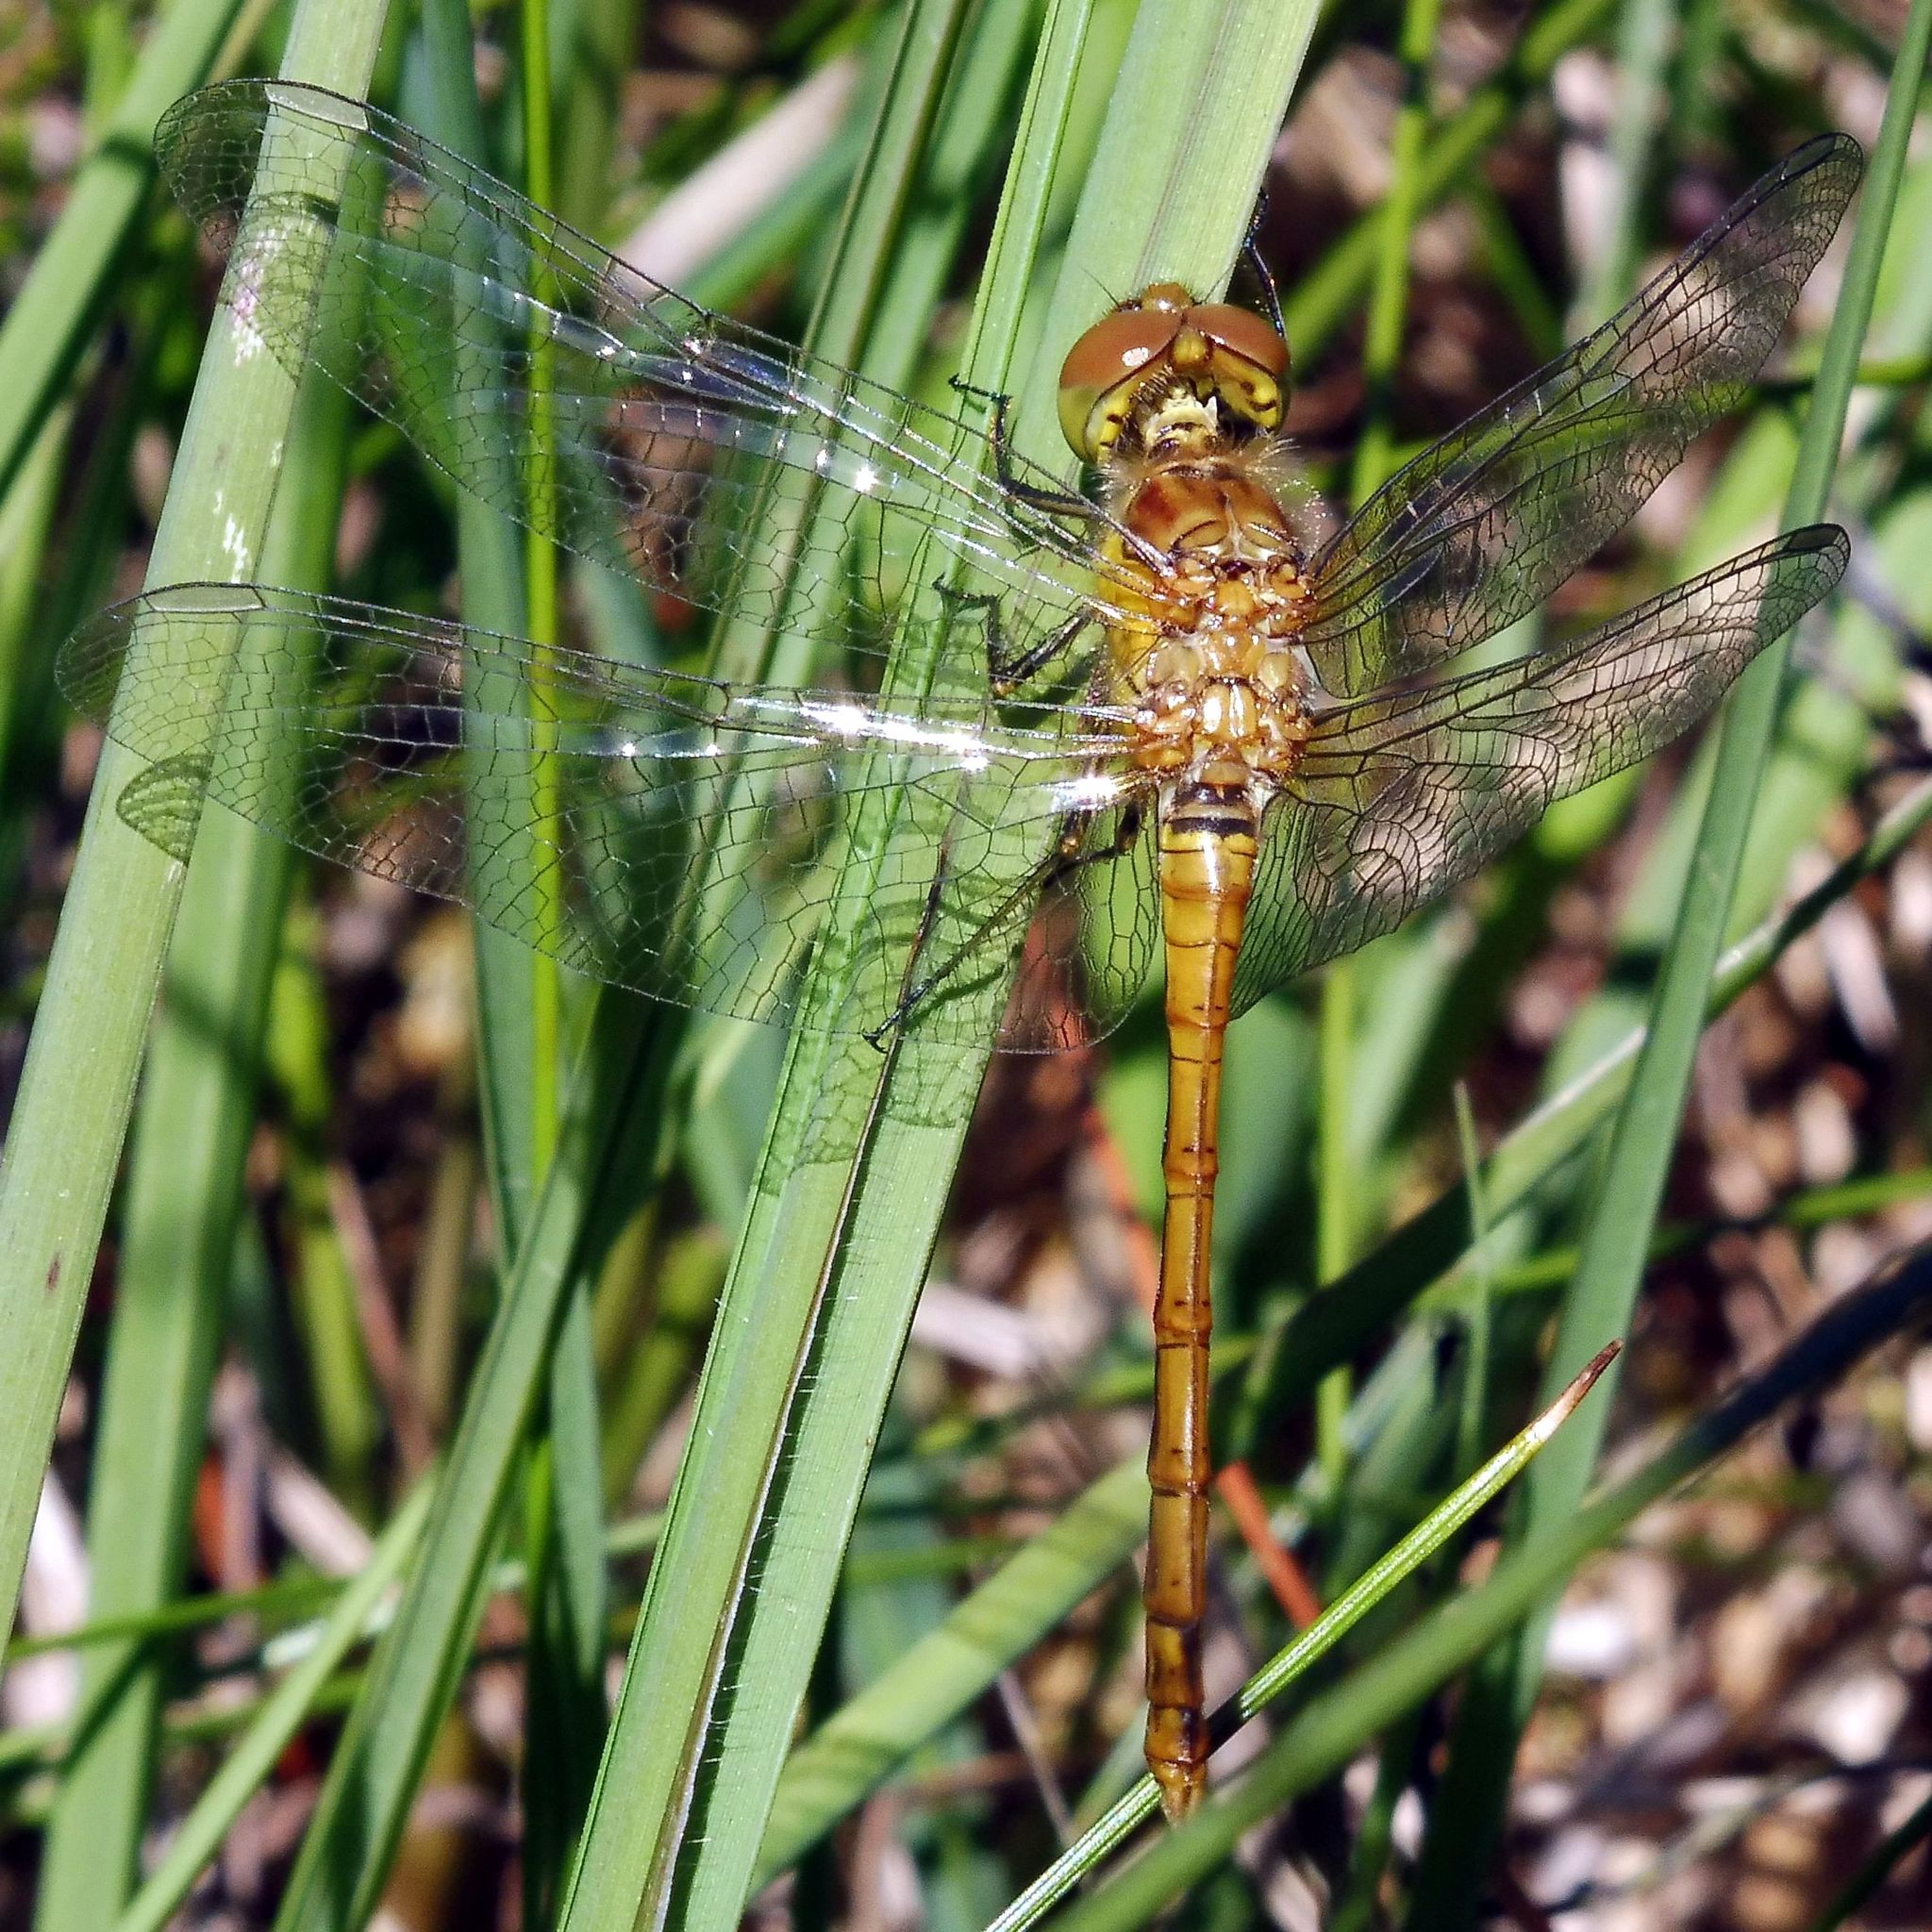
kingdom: Animalia
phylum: Arthropoda
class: Insecta
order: Odonata
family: Libellulidae
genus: Sympetrum
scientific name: Sympetrum striolatum
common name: Common darter
